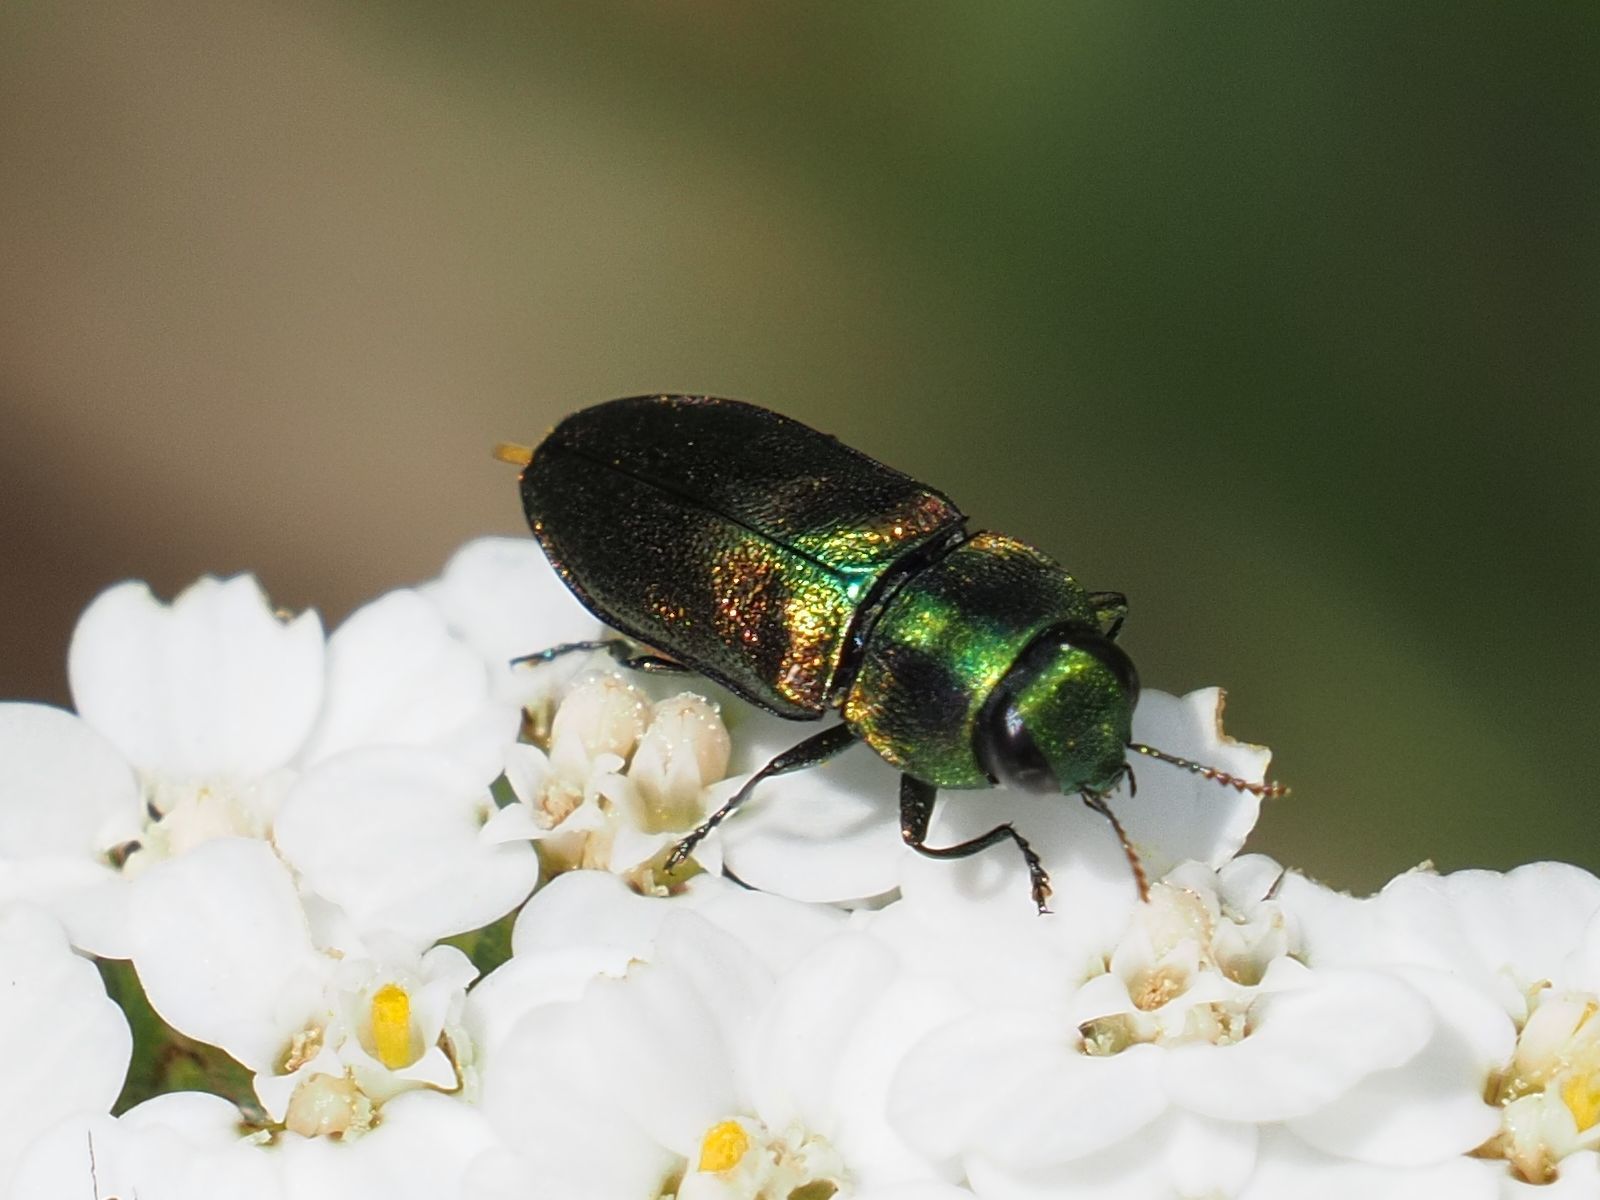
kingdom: Animalia
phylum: Arthropoda
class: Insecta
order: Coleoptera
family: Buprestidae
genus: Anthaxia
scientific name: Anthaxia podolica
